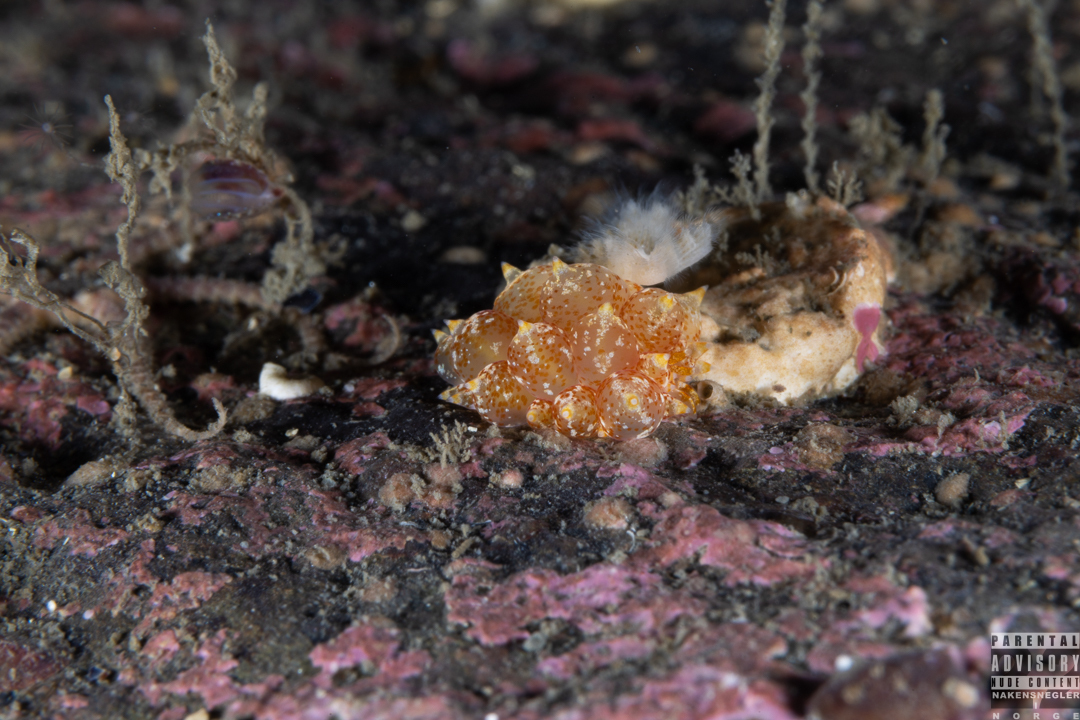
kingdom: Animalia
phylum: Mollusca
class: Gastropoda
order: Nudibranchia
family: Eubranchidae
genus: Amphorina
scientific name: Amphorina pallida
